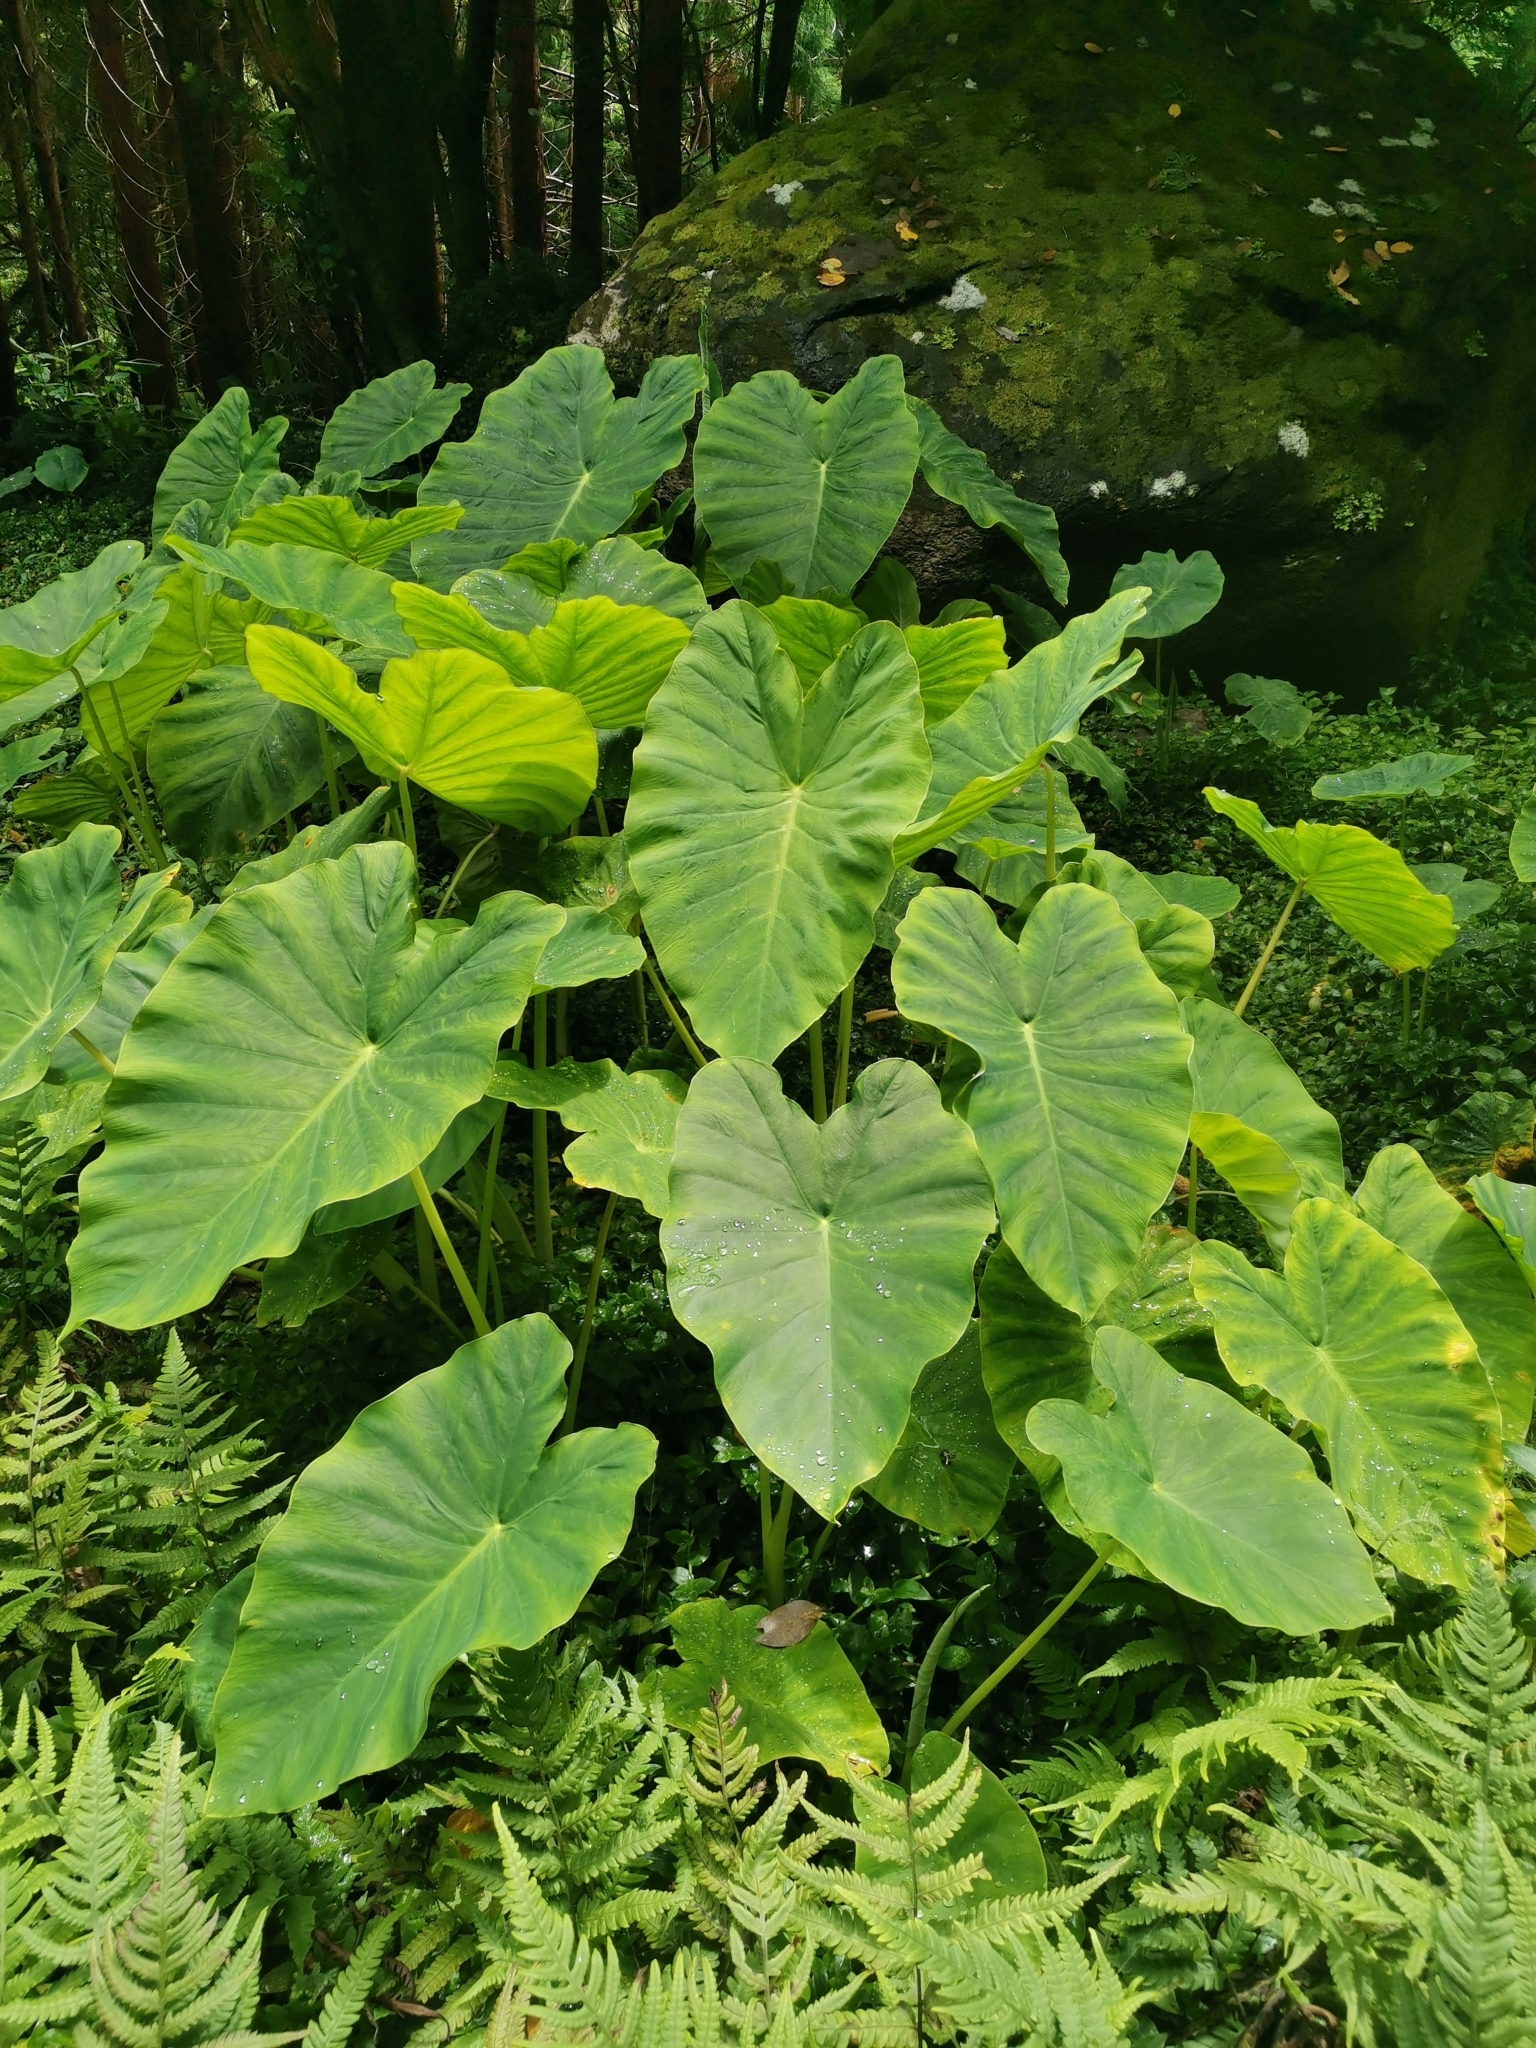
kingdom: Plantae
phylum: Tracheophyta
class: Liliopsida
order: Alismatales
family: Araceae
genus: Colocasia
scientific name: Colocasia esculenta
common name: Taro
